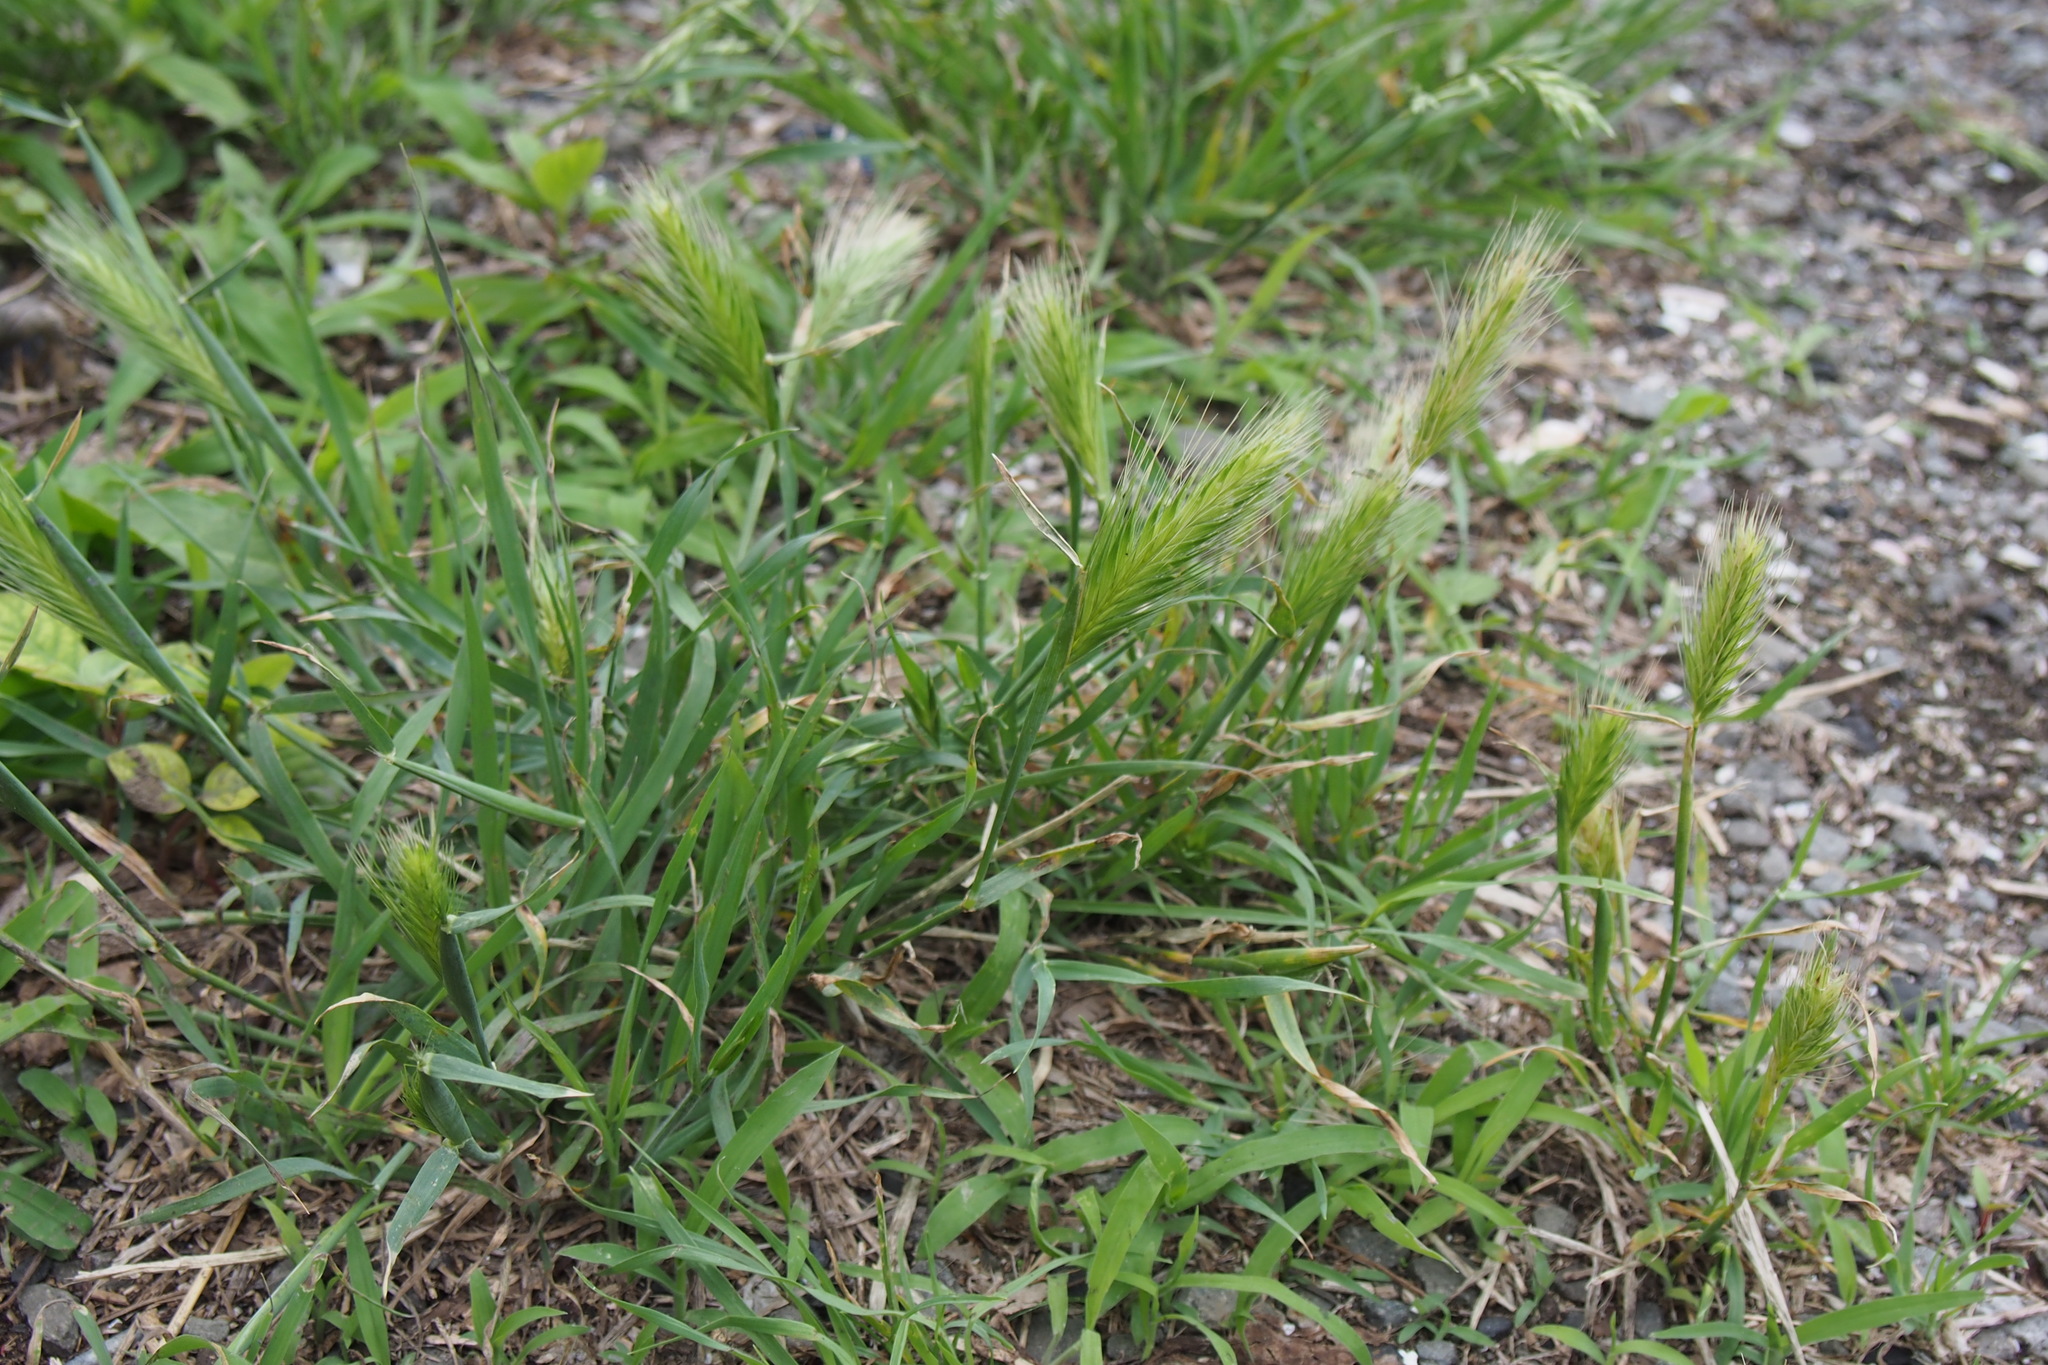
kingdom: Plantae
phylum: Tracheophyta
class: Liliopsida
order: Poales
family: Poaceae
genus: Hordeum
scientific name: Hordeum murinum
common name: Wall barley
